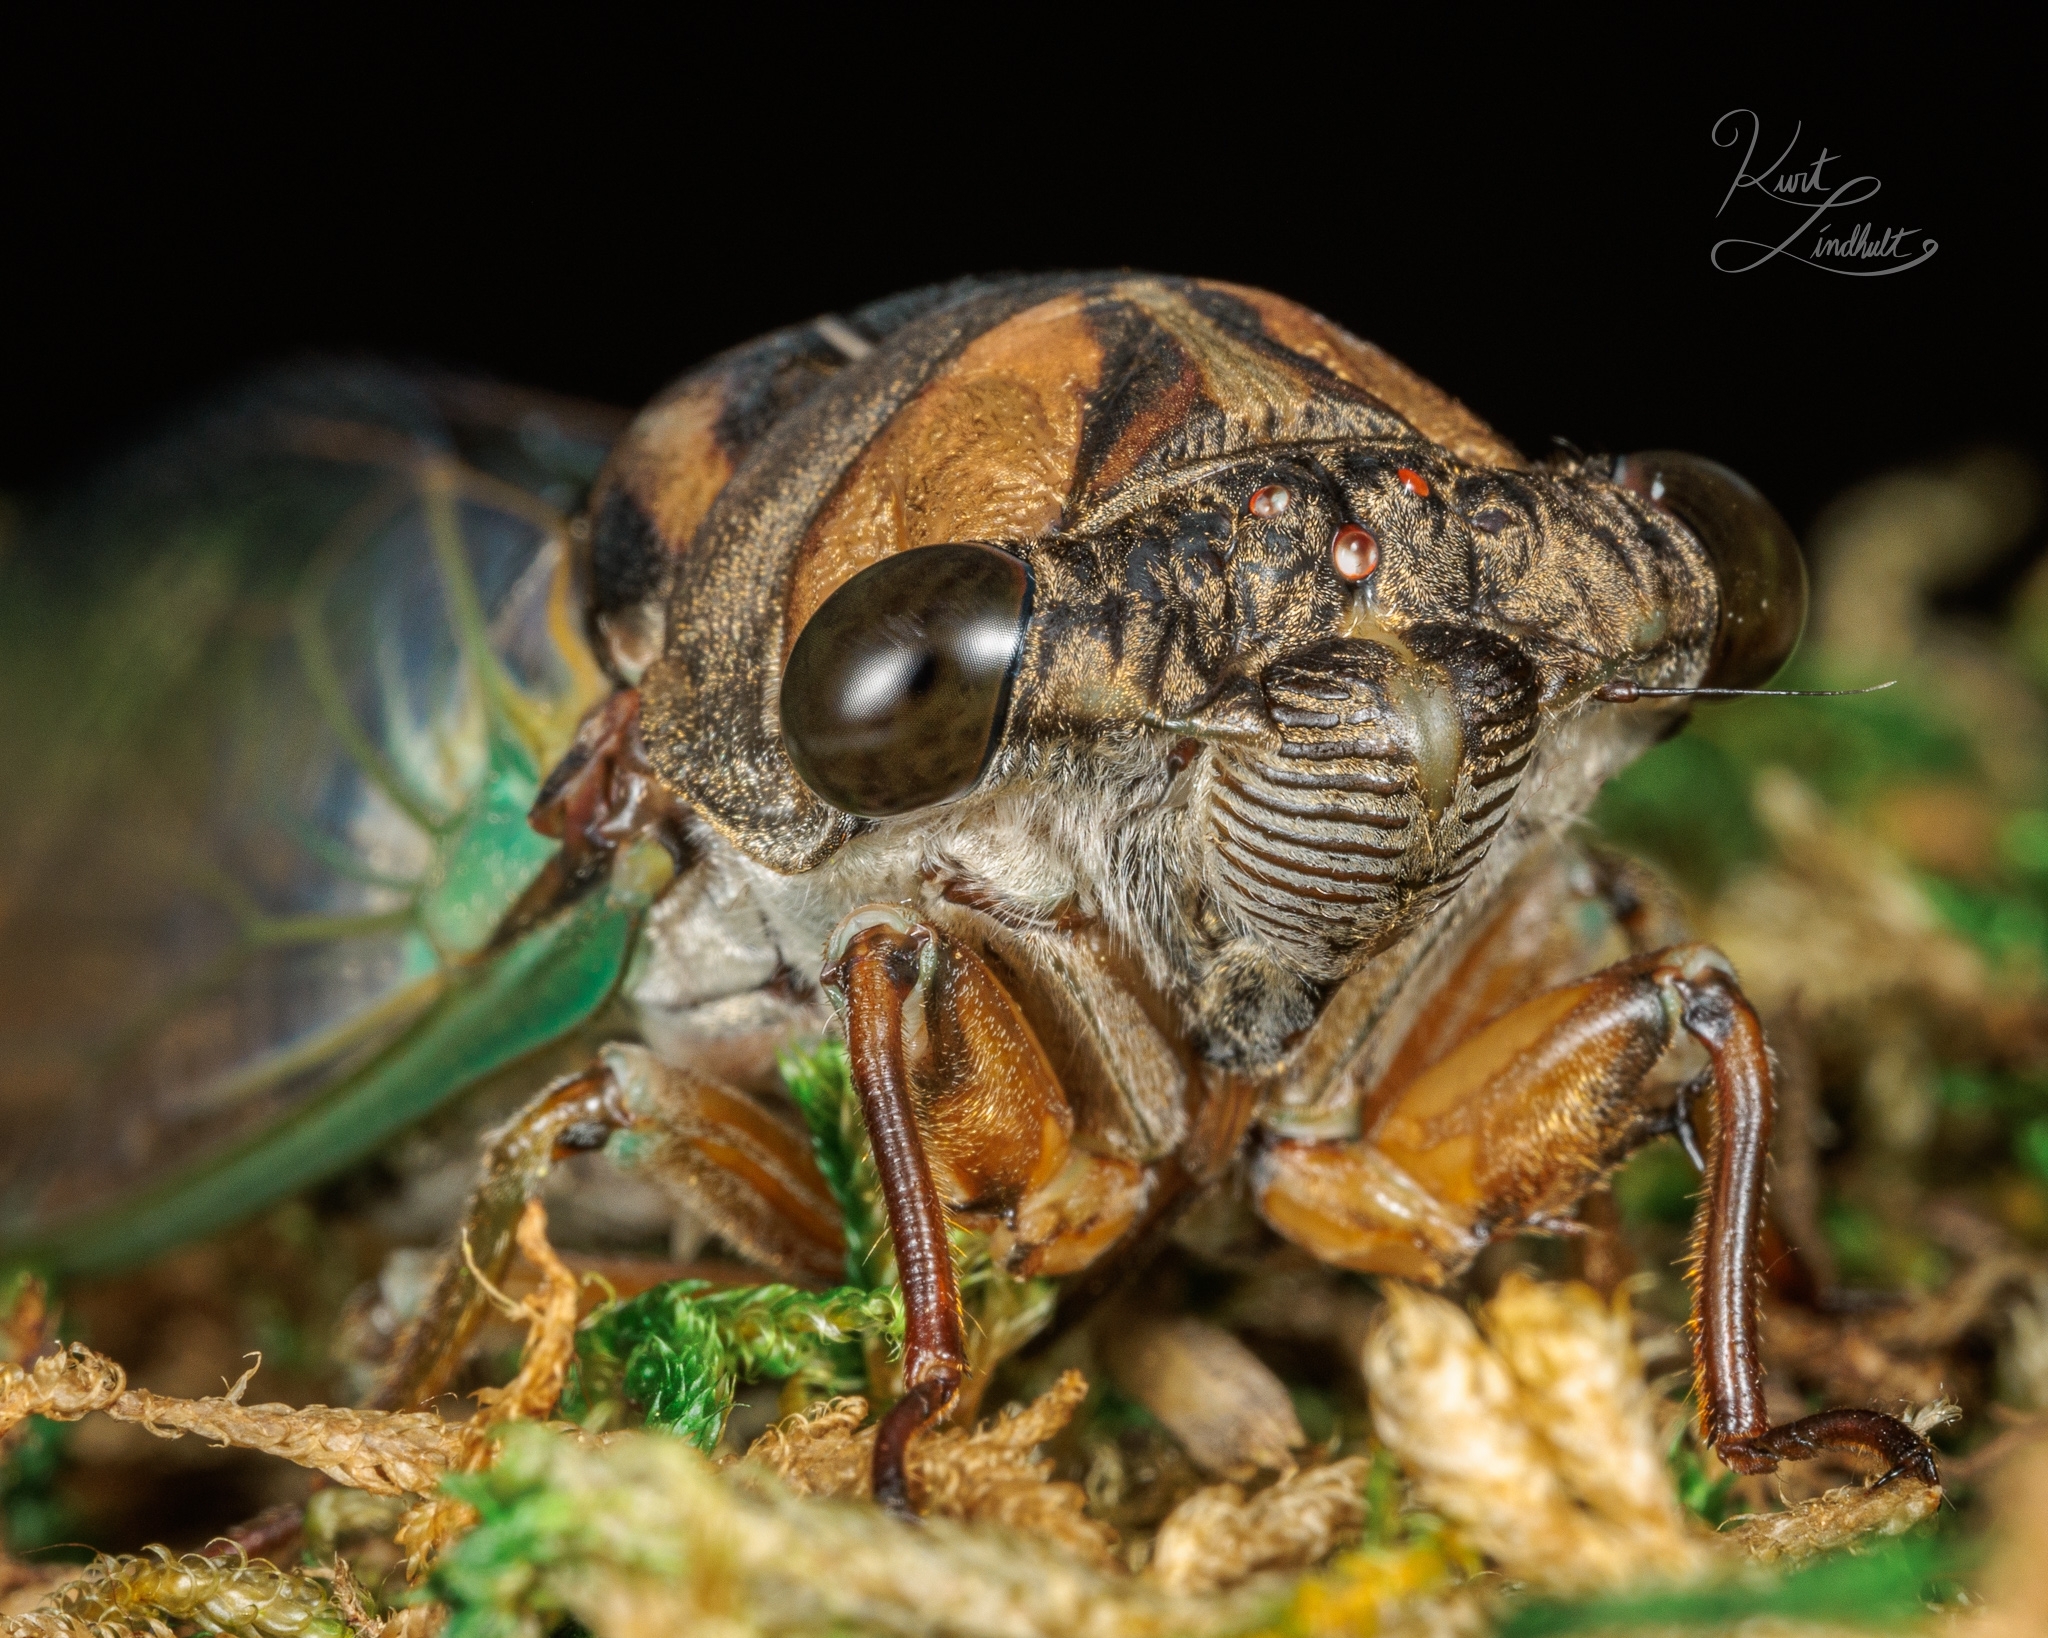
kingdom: Animalia
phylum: Arthropoda
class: Insecta
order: Hemiptera
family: Cicadidae
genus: Neotibicen
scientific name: Neotibicen lyricen
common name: Lyric cicada
